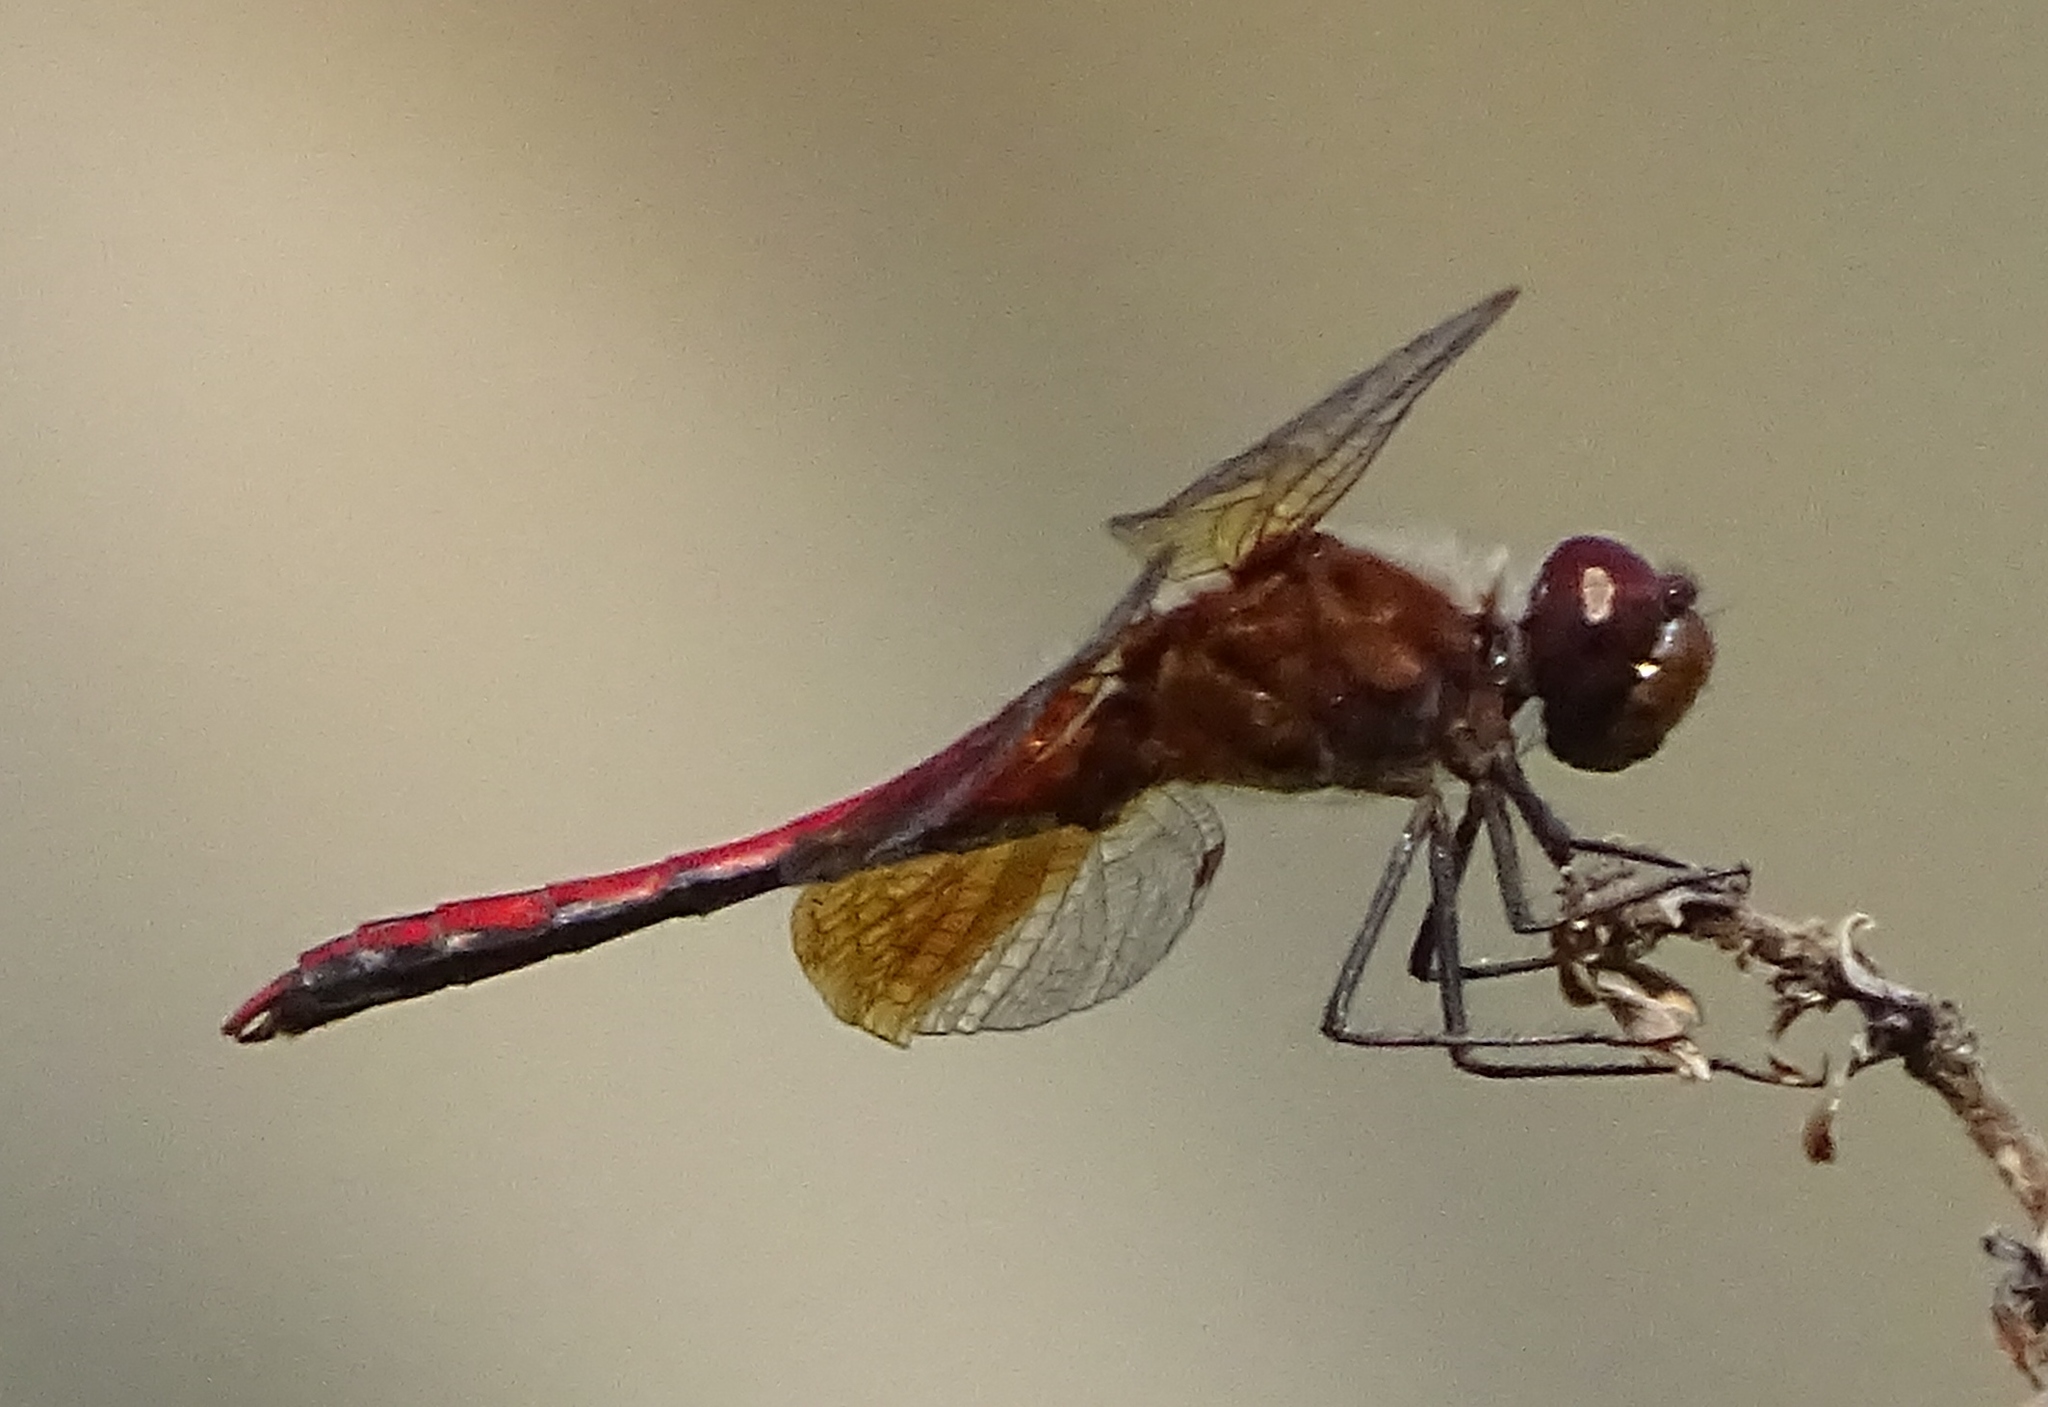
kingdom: Animalia
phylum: Arthropoda
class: Insecta
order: Odonata
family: Libellulidae
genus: Sympetrum
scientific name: Sympetrum semicinctum
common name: Band-winged meadowhawk
